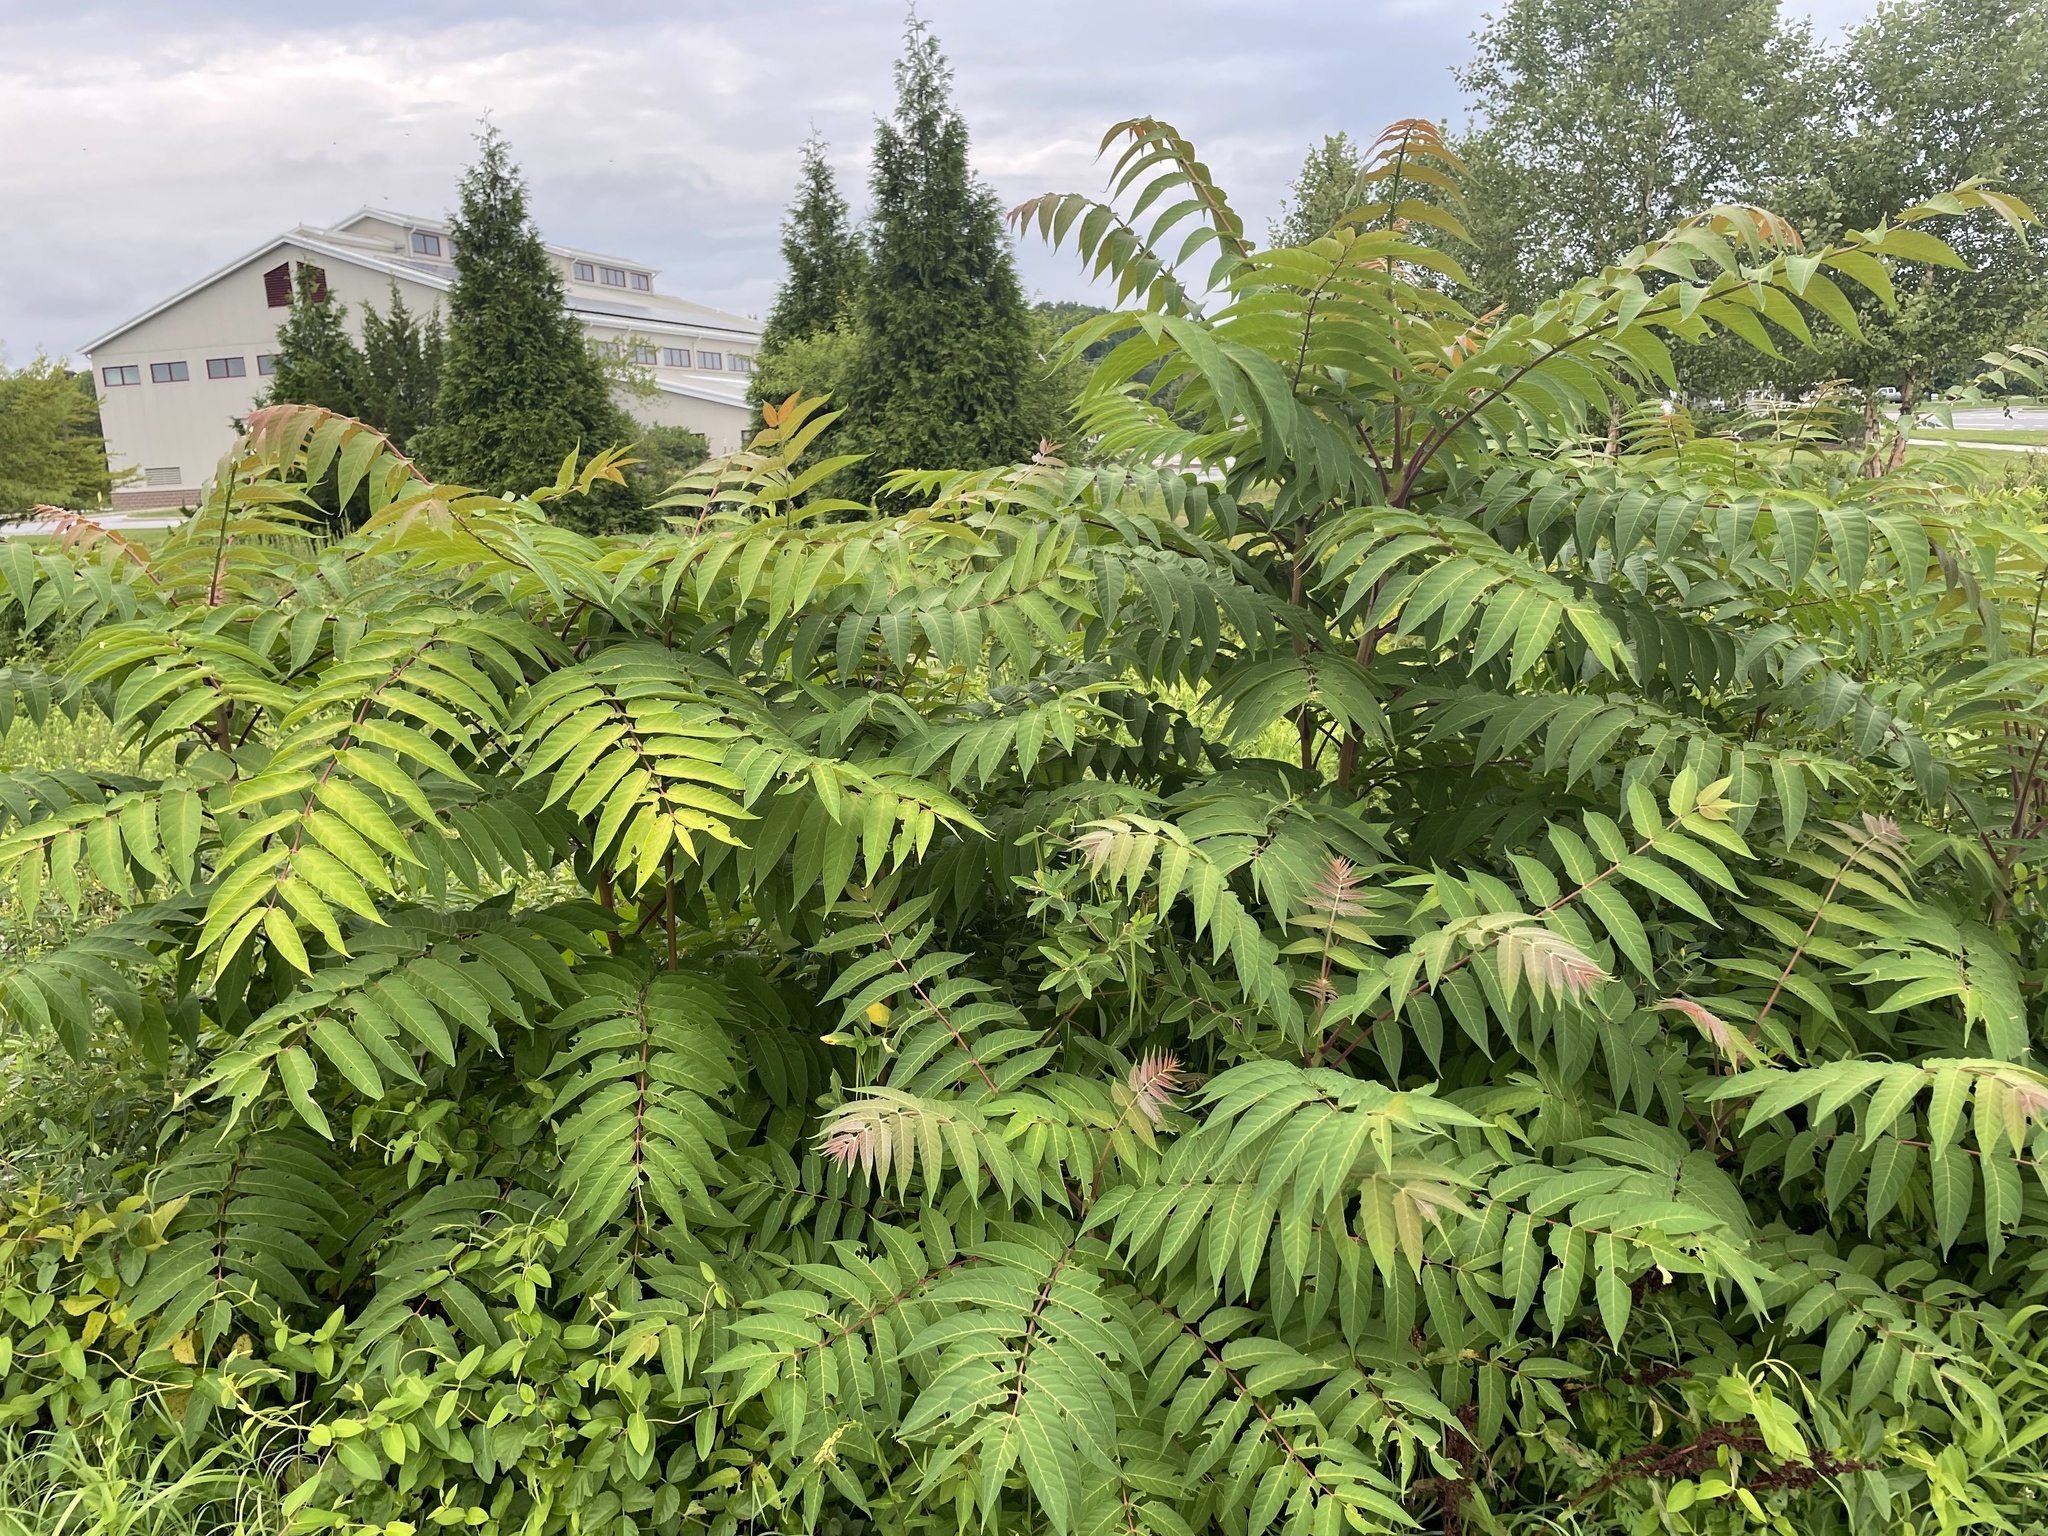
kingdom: Plantae
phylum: Tracheophyta
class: Magnoliopsida
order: Sapindales
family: Simaroubaceae
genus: Ailanthus
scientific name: Ailanthus altissima
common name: Tree-of-heaven
